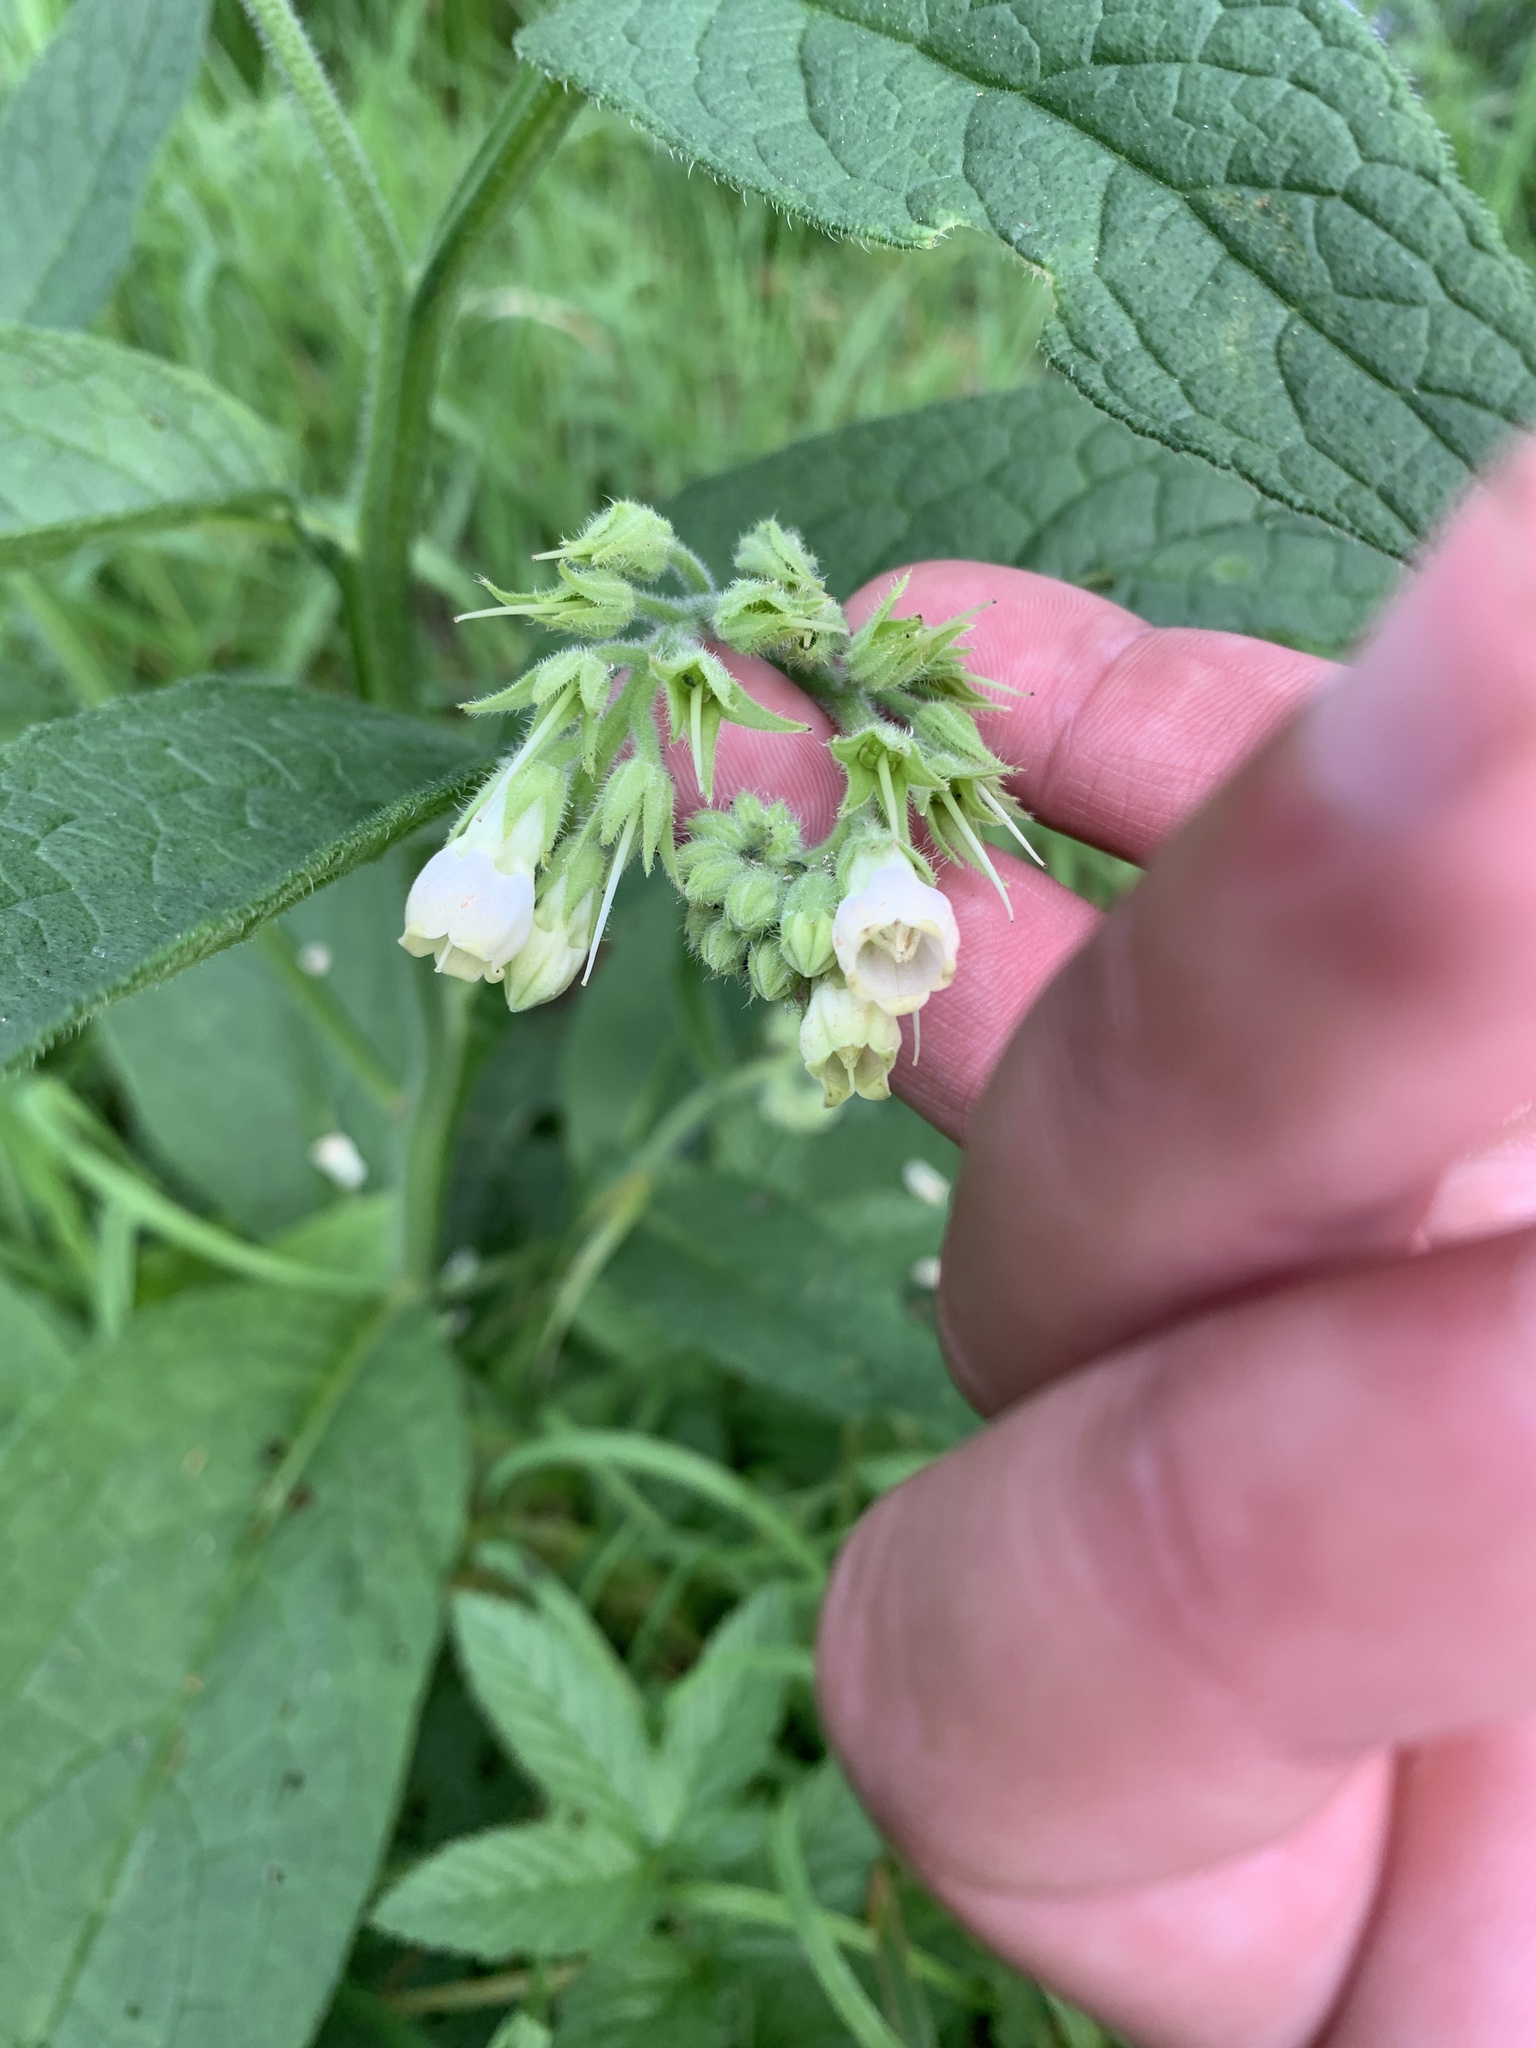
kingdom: Plantae
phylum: Tracheophyta
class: Magnoliopsida
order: Boraginales
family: Boraginaceae
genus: Symphytum
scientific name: Symphytum officinale
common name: Common comfrey
